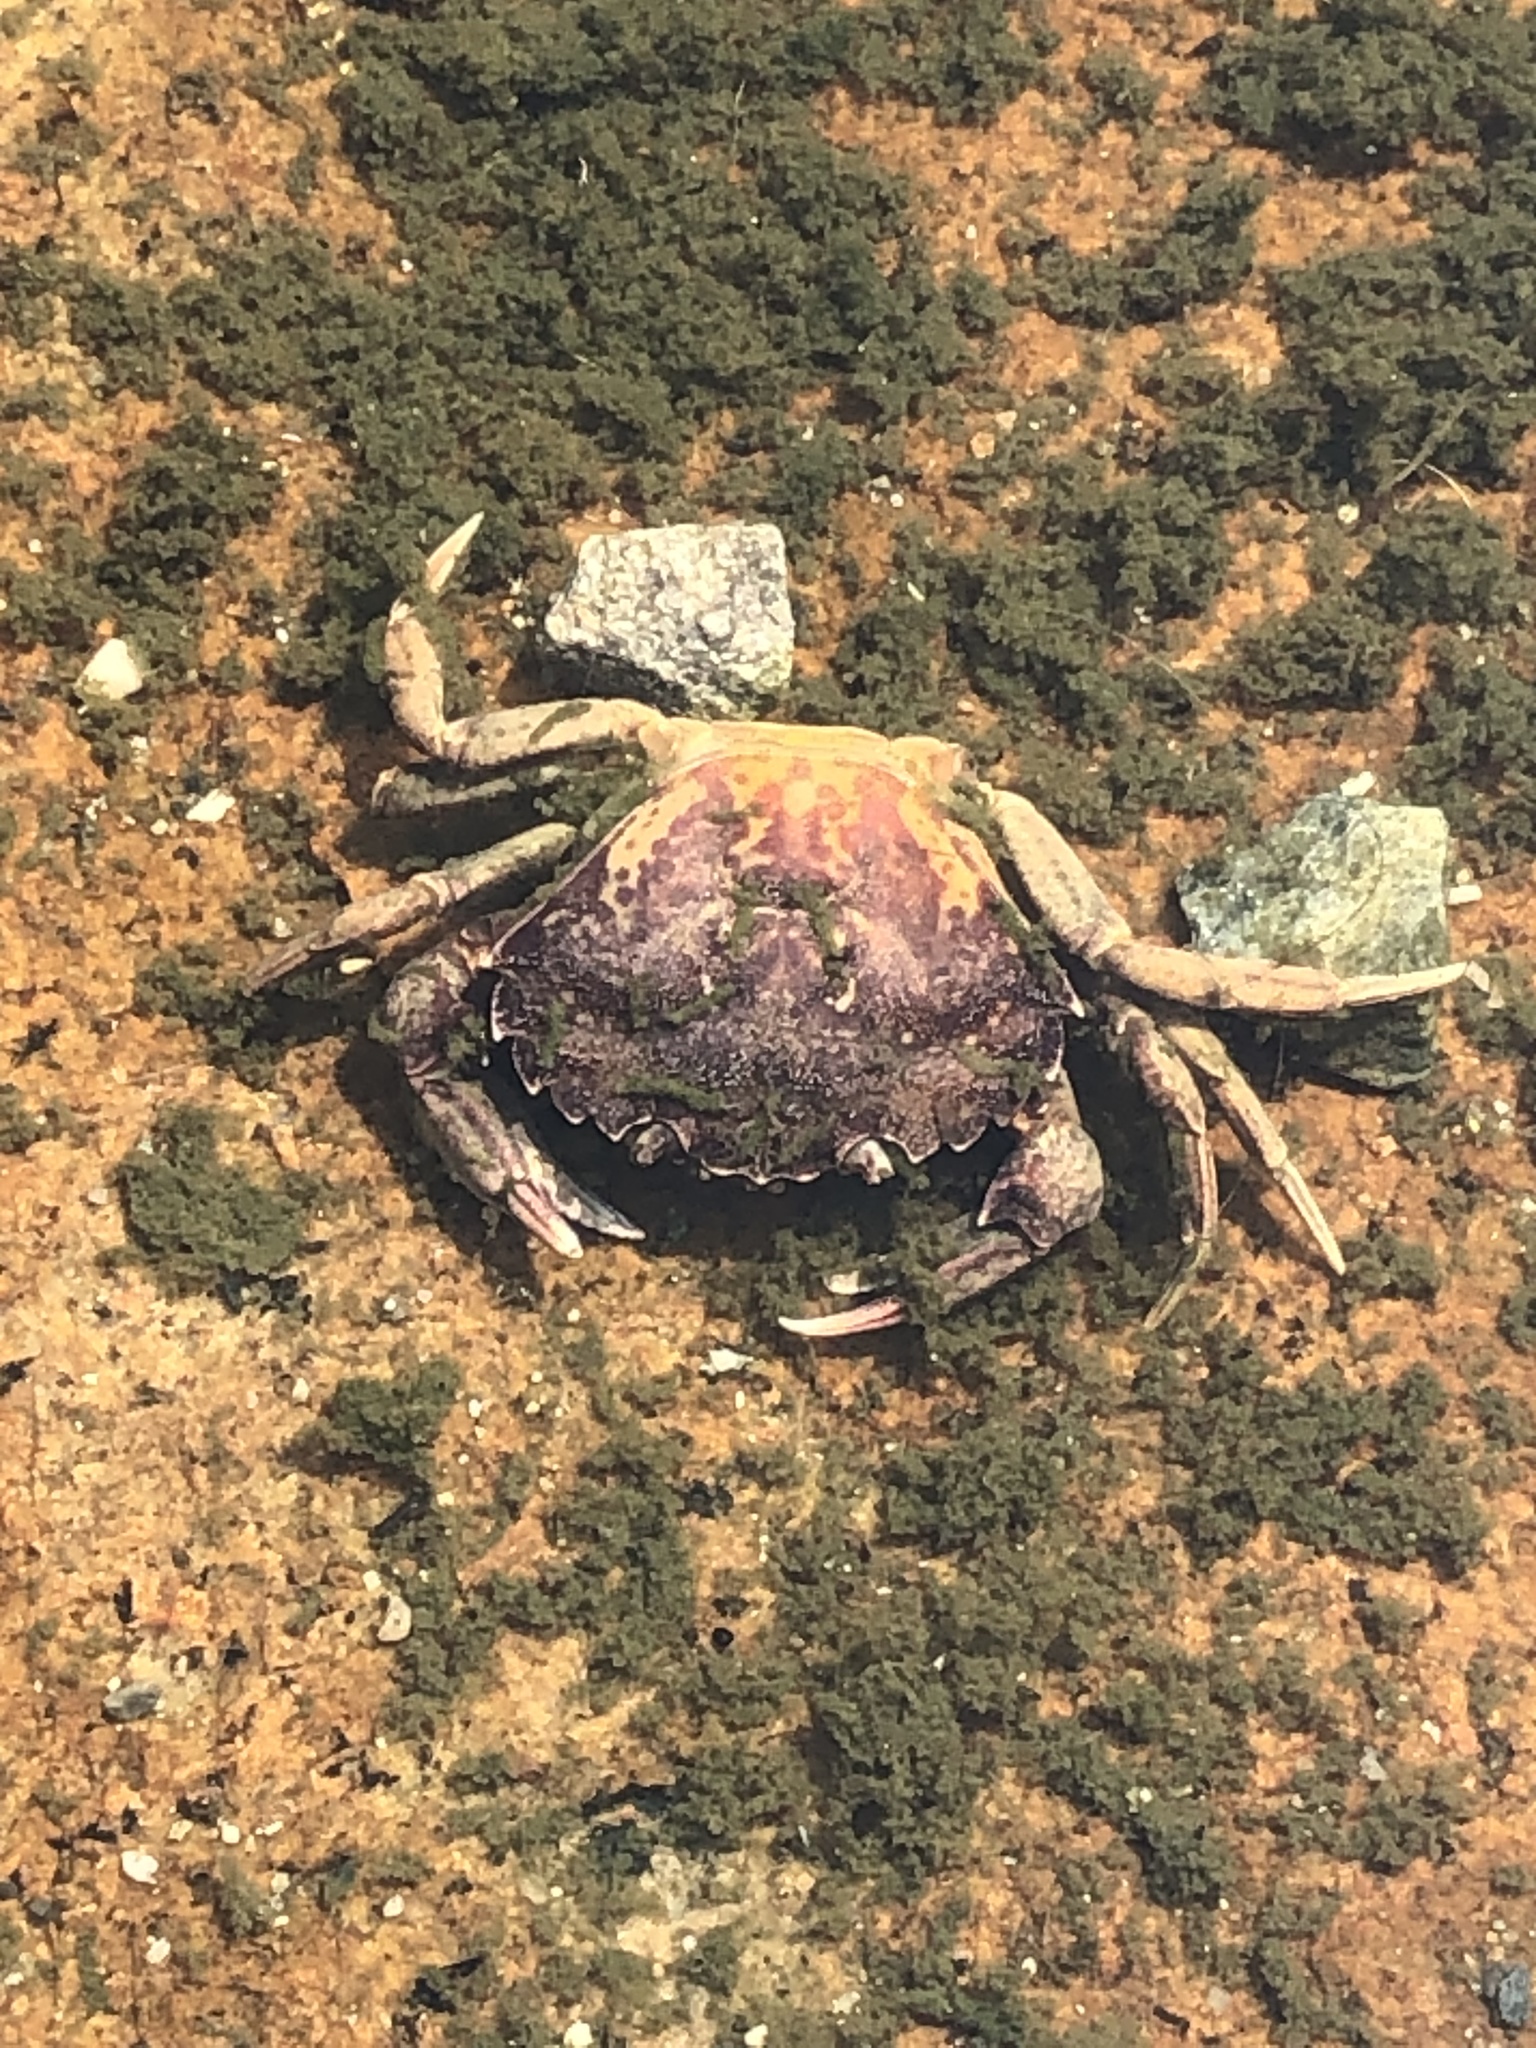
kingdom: Animalia
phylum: Arthropoda
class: Malacostraca
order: Decapoda
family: Carcinidae
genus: Carcinus
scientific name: Carcinus maenas
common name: European green crab
